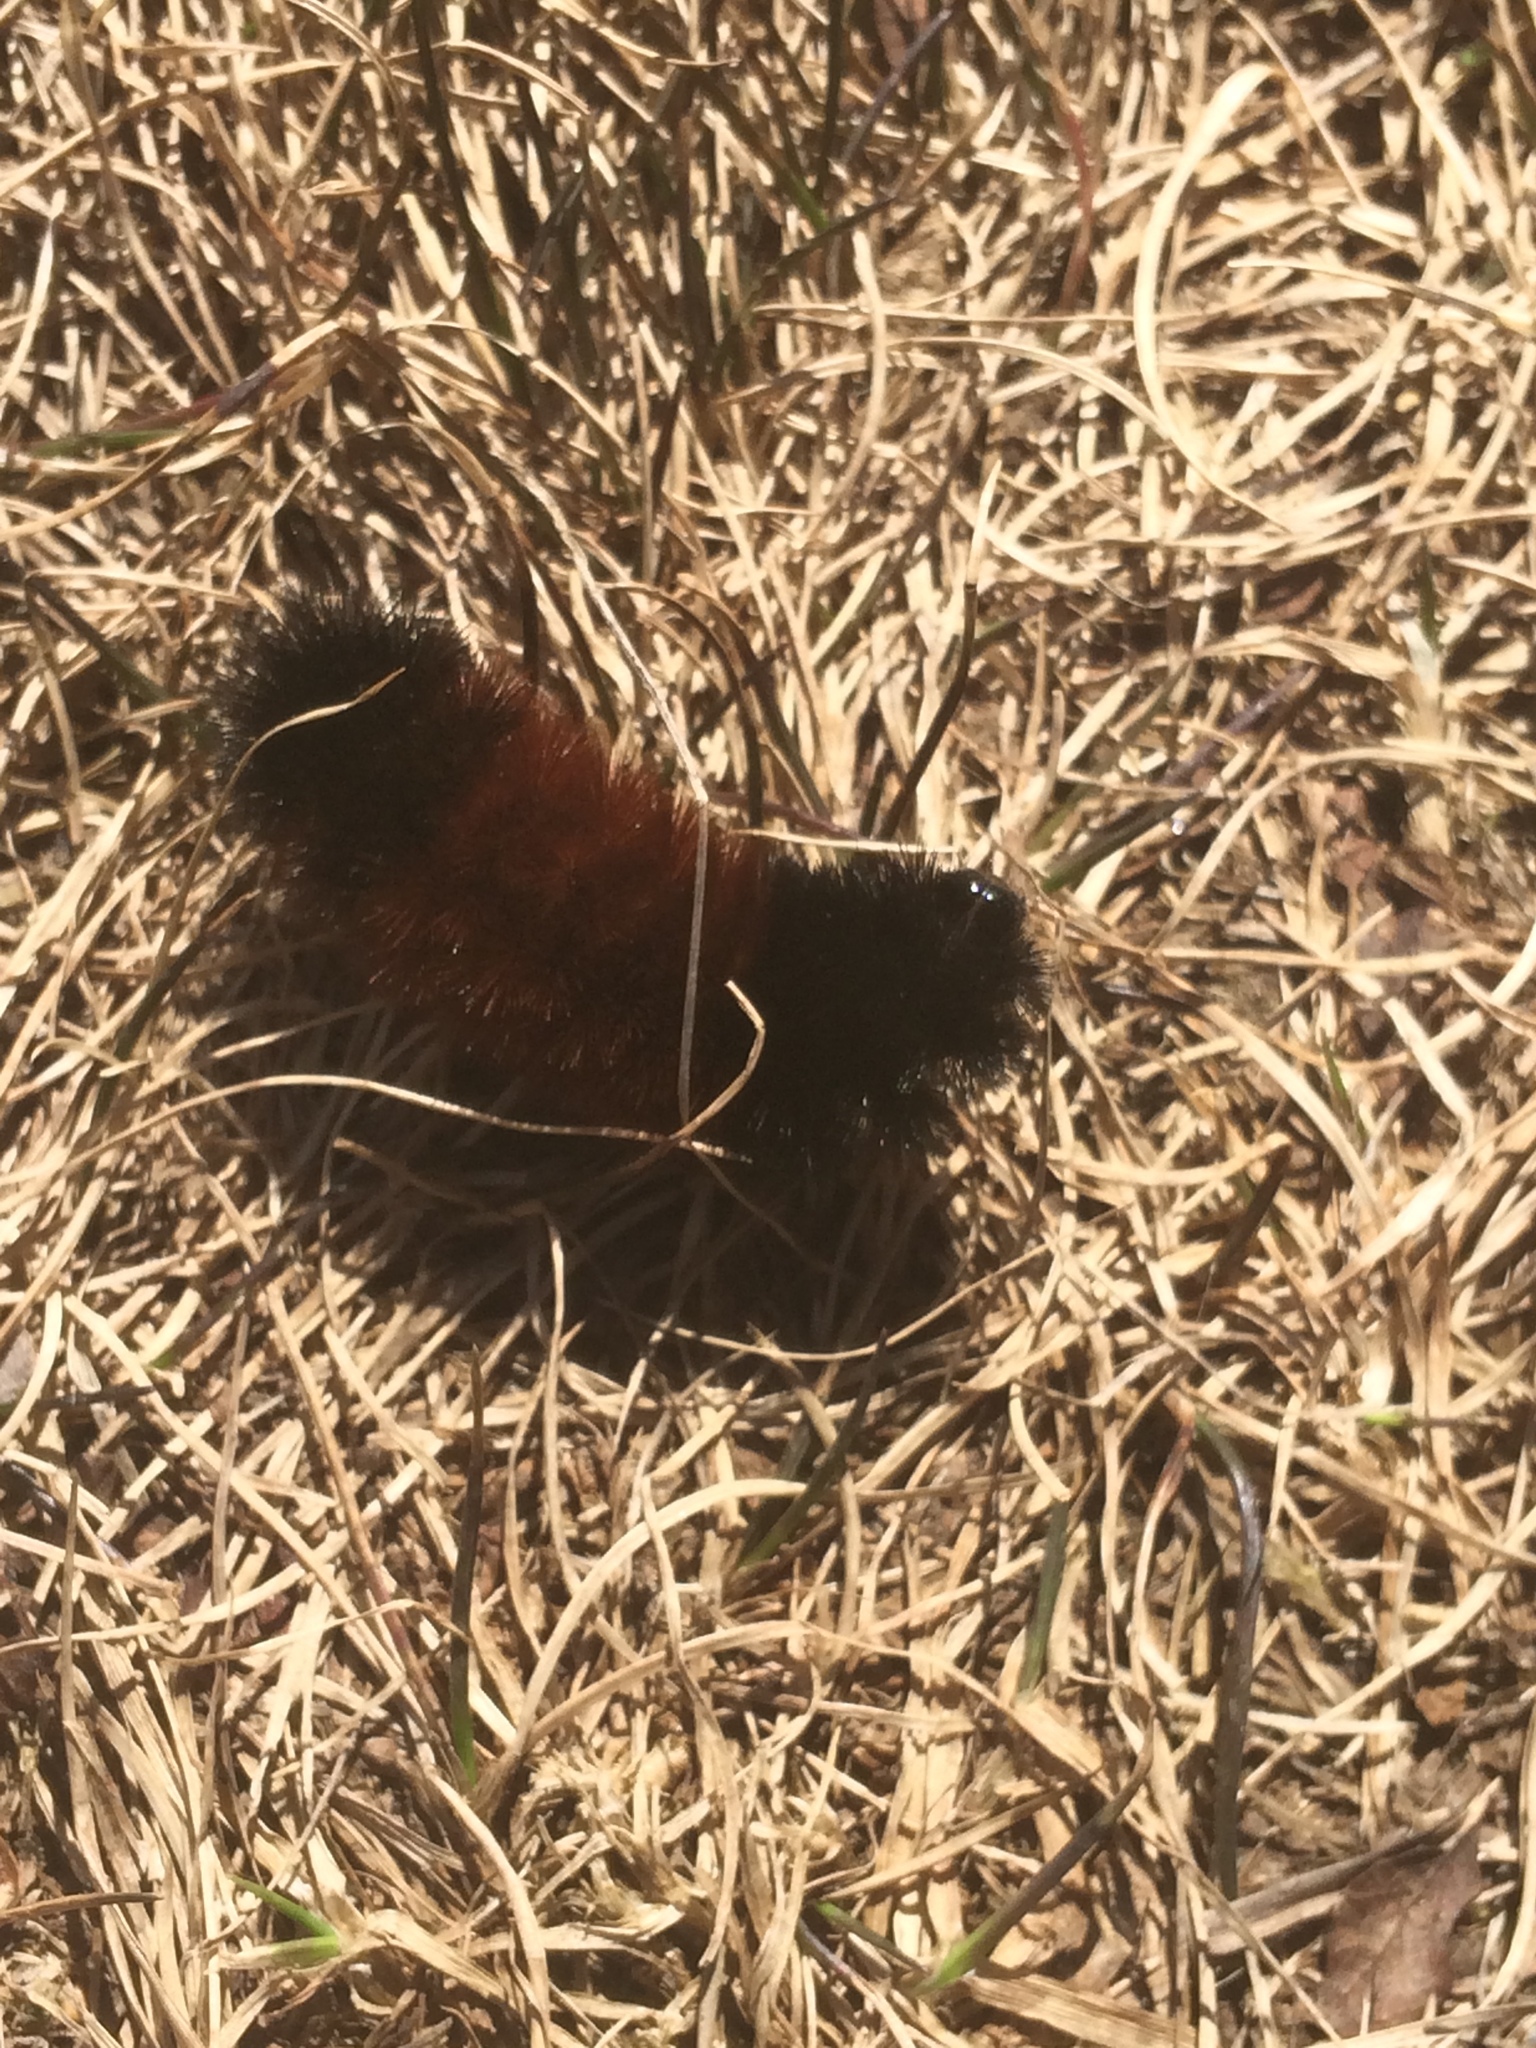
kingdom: Animalia
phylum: Arthropoda
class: Insecta
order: Lepidoptera
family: Erebidae
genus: Pyrrharctia
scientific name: Pyrrharctia isabella
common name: Isabella tiger moth
